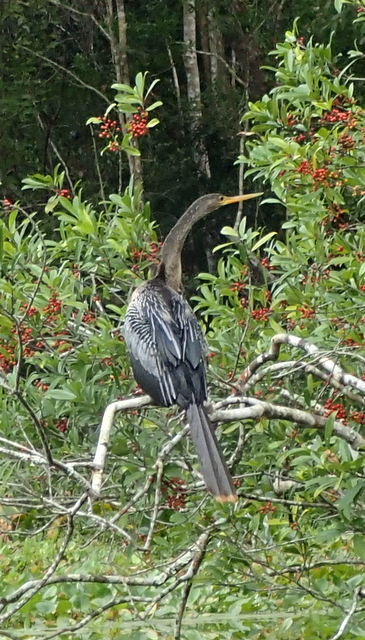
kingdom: Animalia
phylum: Chordata
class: Aves
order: Suliformes
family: Anhingidae
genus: Anhinga
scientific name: Anhinga anhinga
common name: Anhinga
